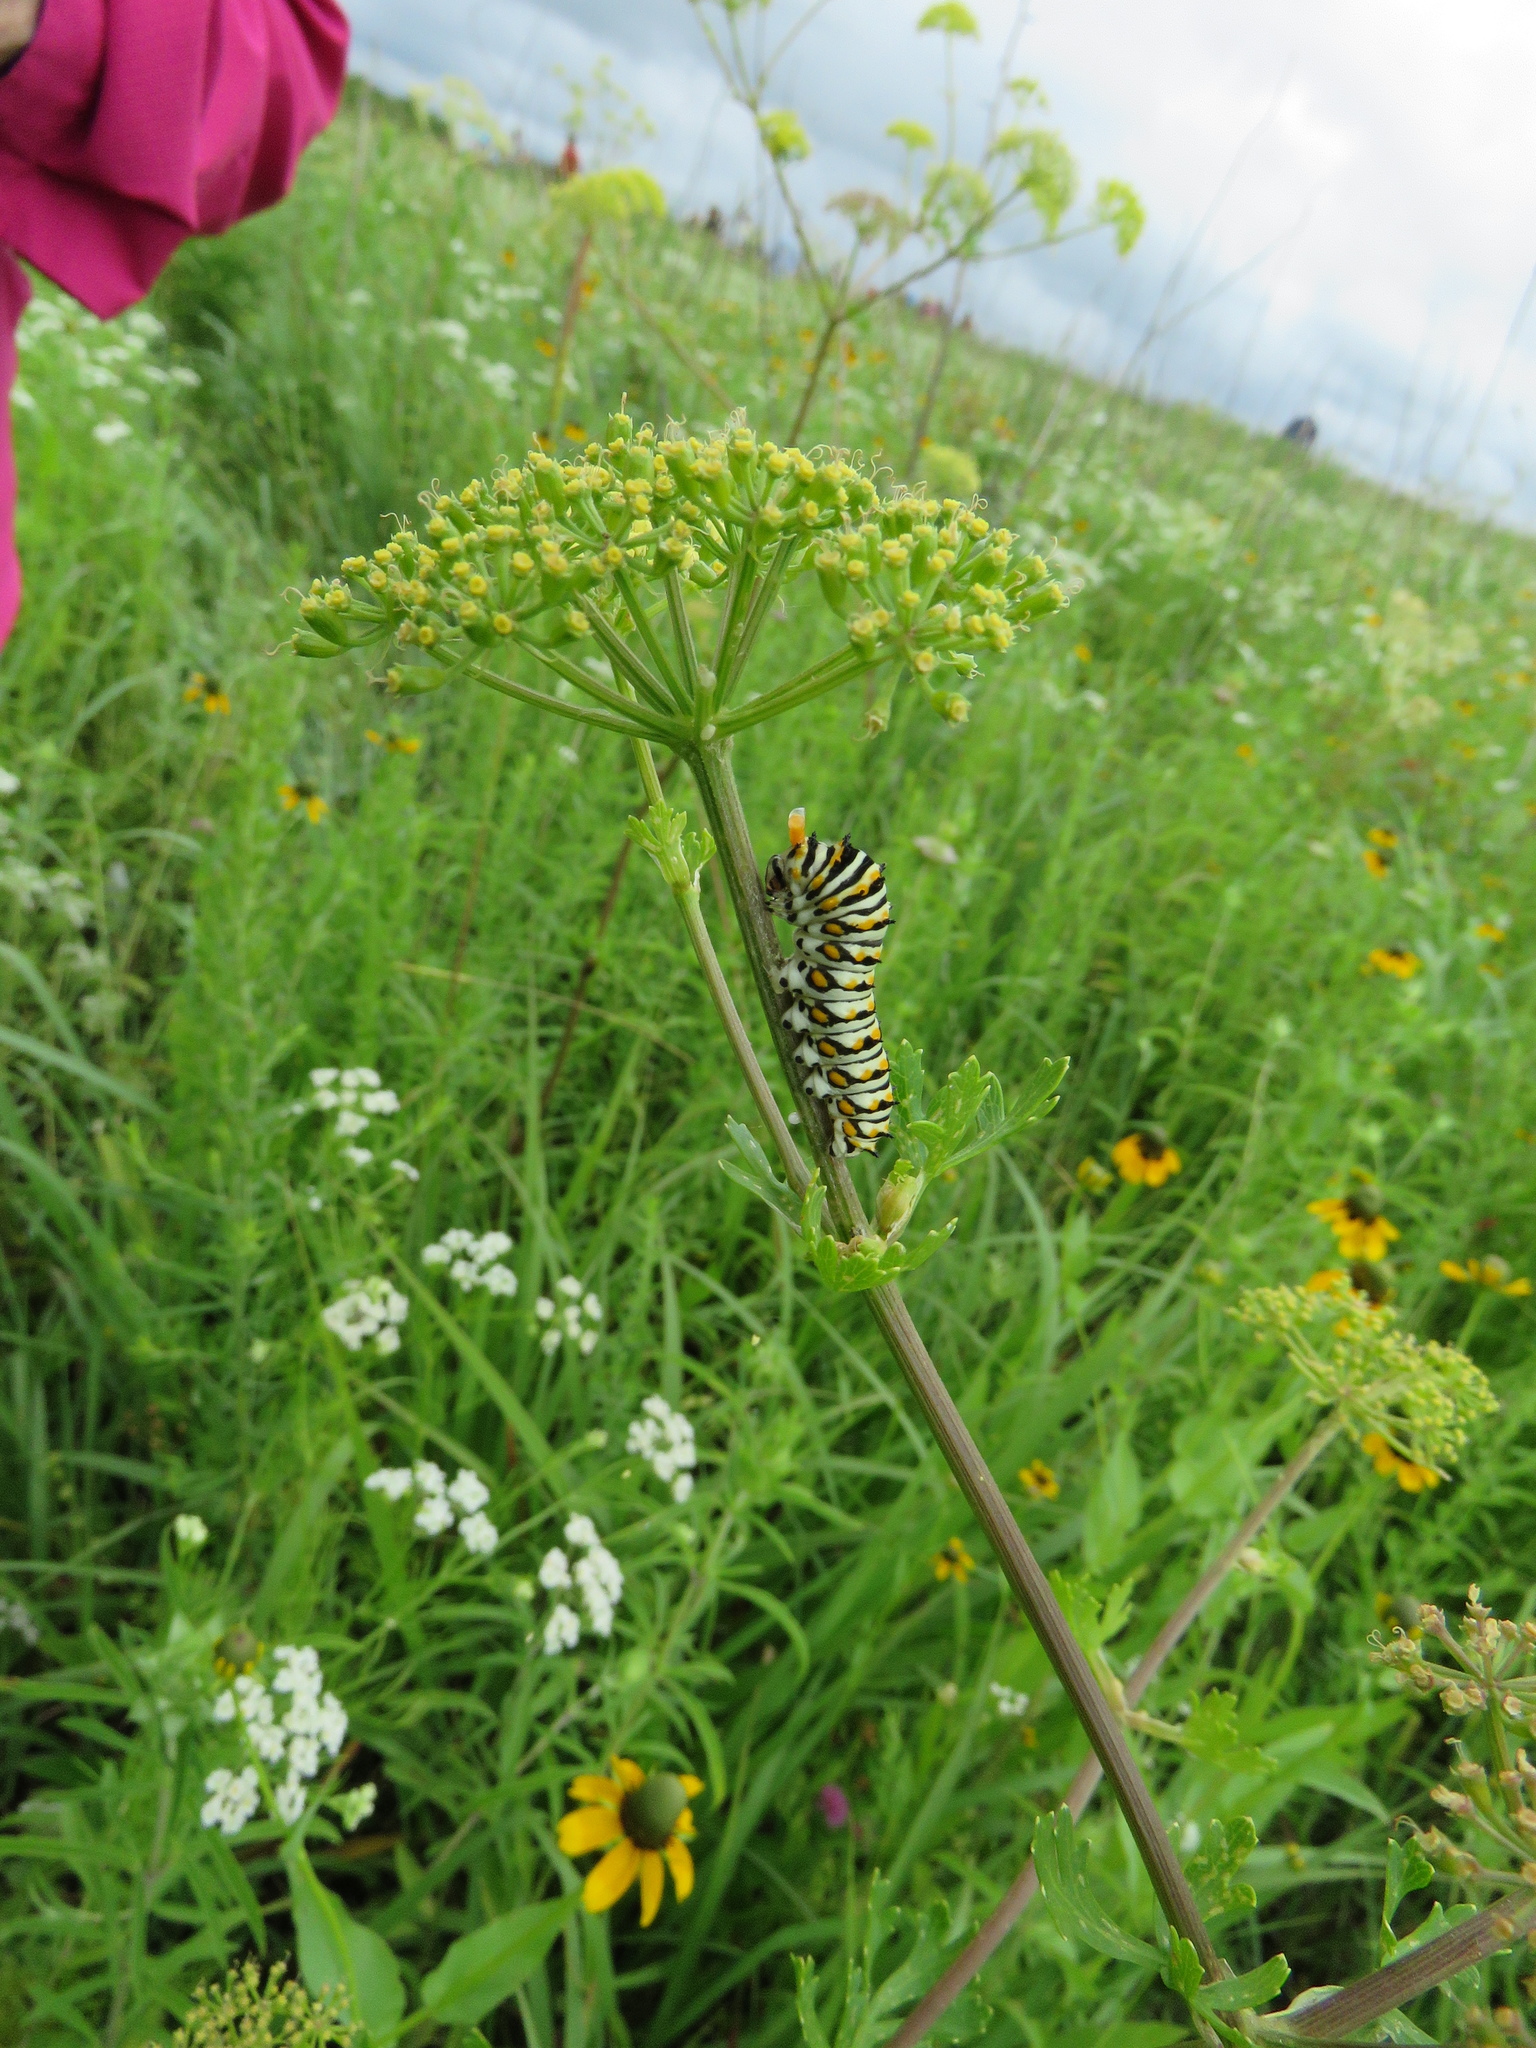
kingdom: Animalia
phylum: Arthropoda
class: Insecta
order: Lepidoptera
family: Papilionidae
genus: Papilio
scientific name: Papilio polyxenes
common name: Black swallowtail
